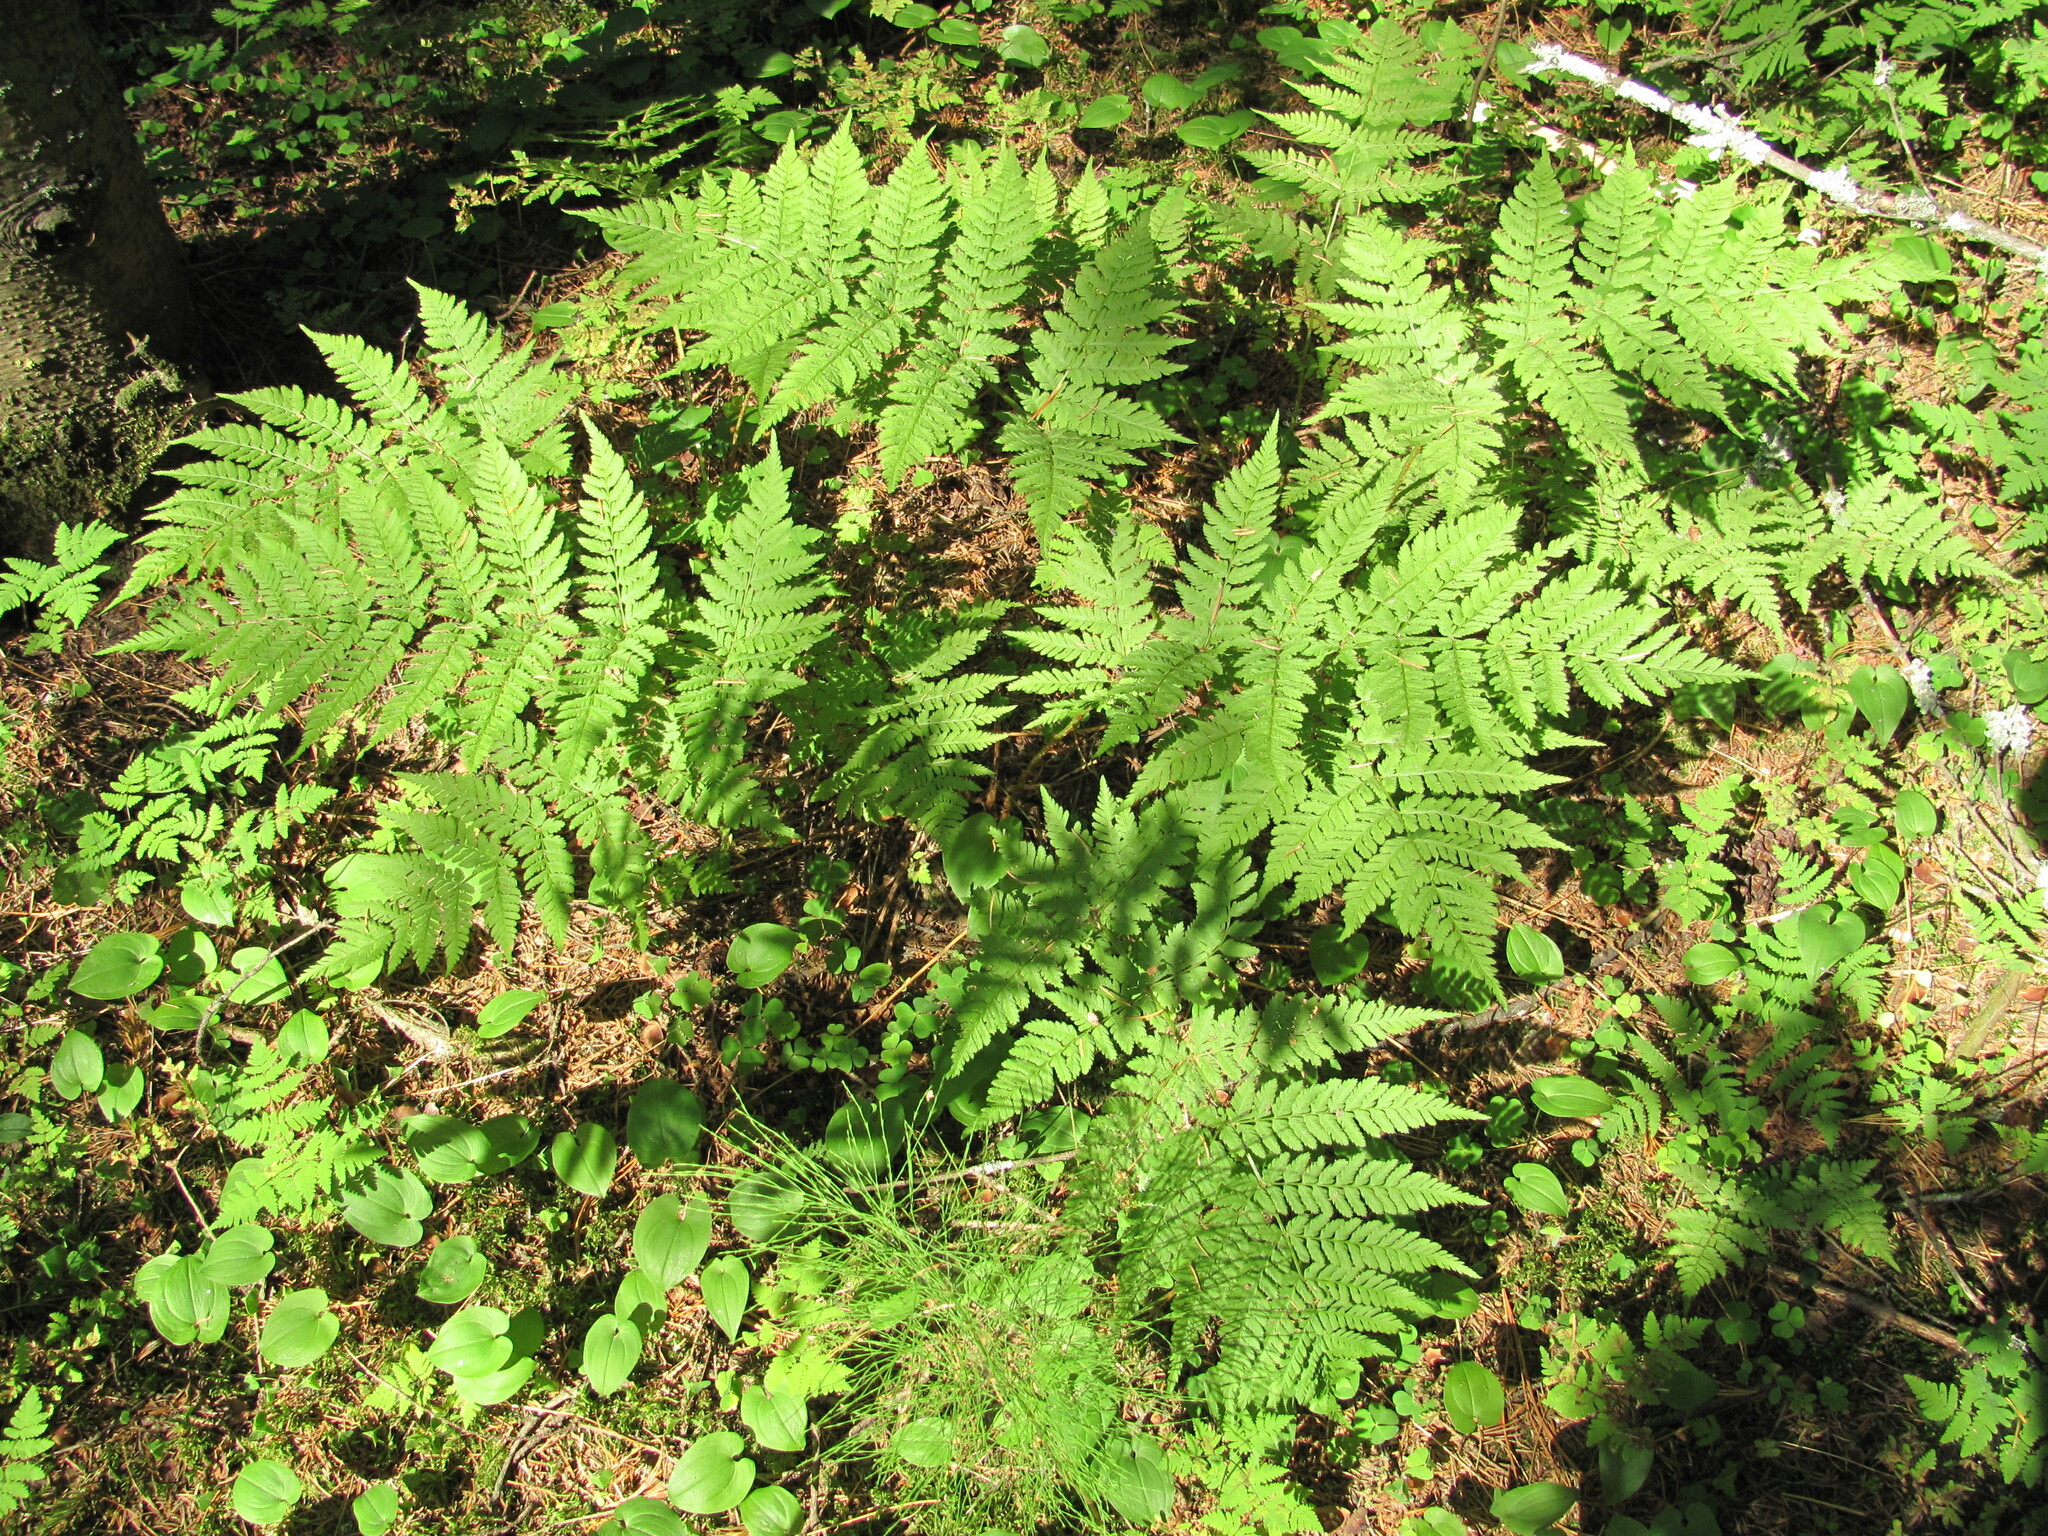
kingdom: Plantae
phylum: Tracheophyta
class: Polypodiopsida
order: Polypodiales
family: Dryopteridaceae
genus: Dryopteris
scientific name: Dryopteris expansa
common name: Northern buckler fern
